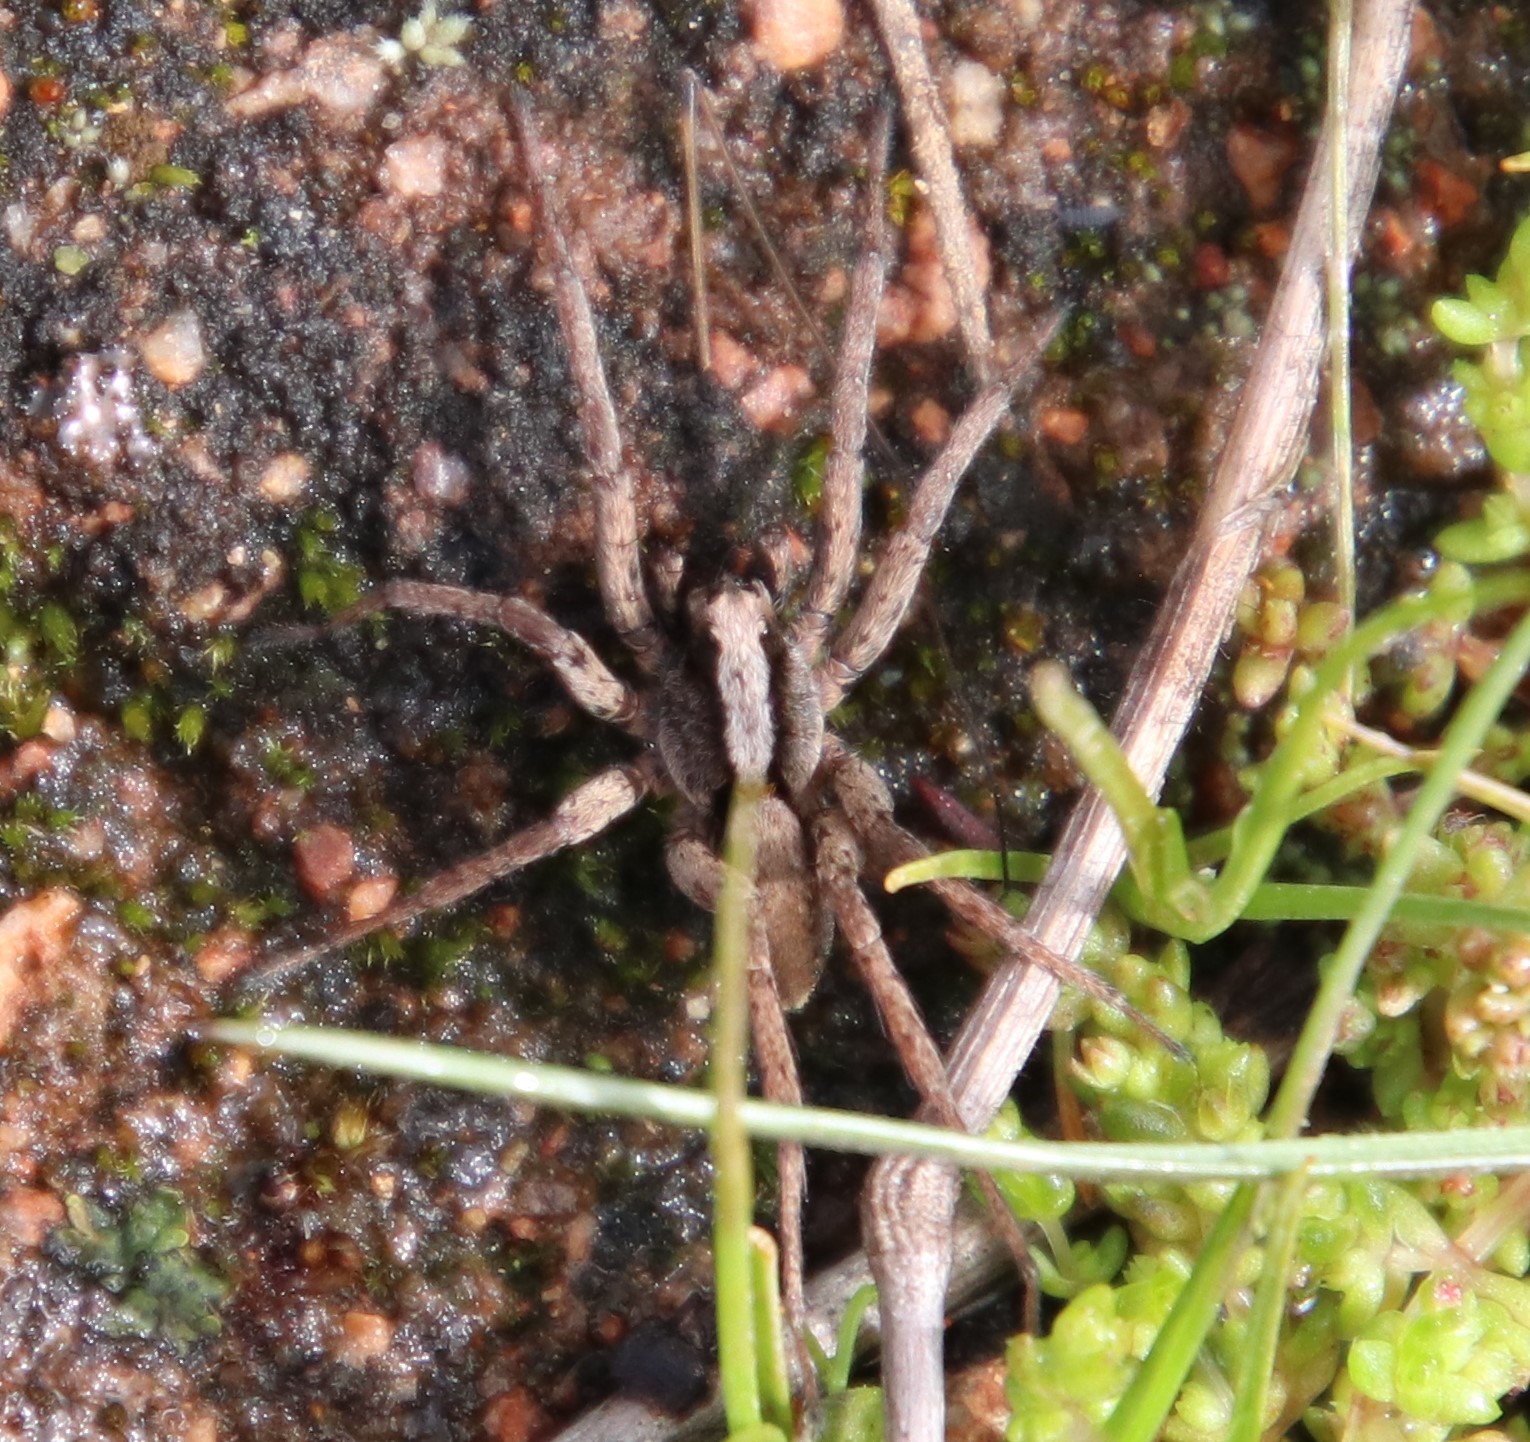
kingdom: Animalia
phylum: Arthropoda
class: Arachnida
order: Araneae
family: Lycosidae
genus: Alopecosa
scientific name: Alopecosa kochi
